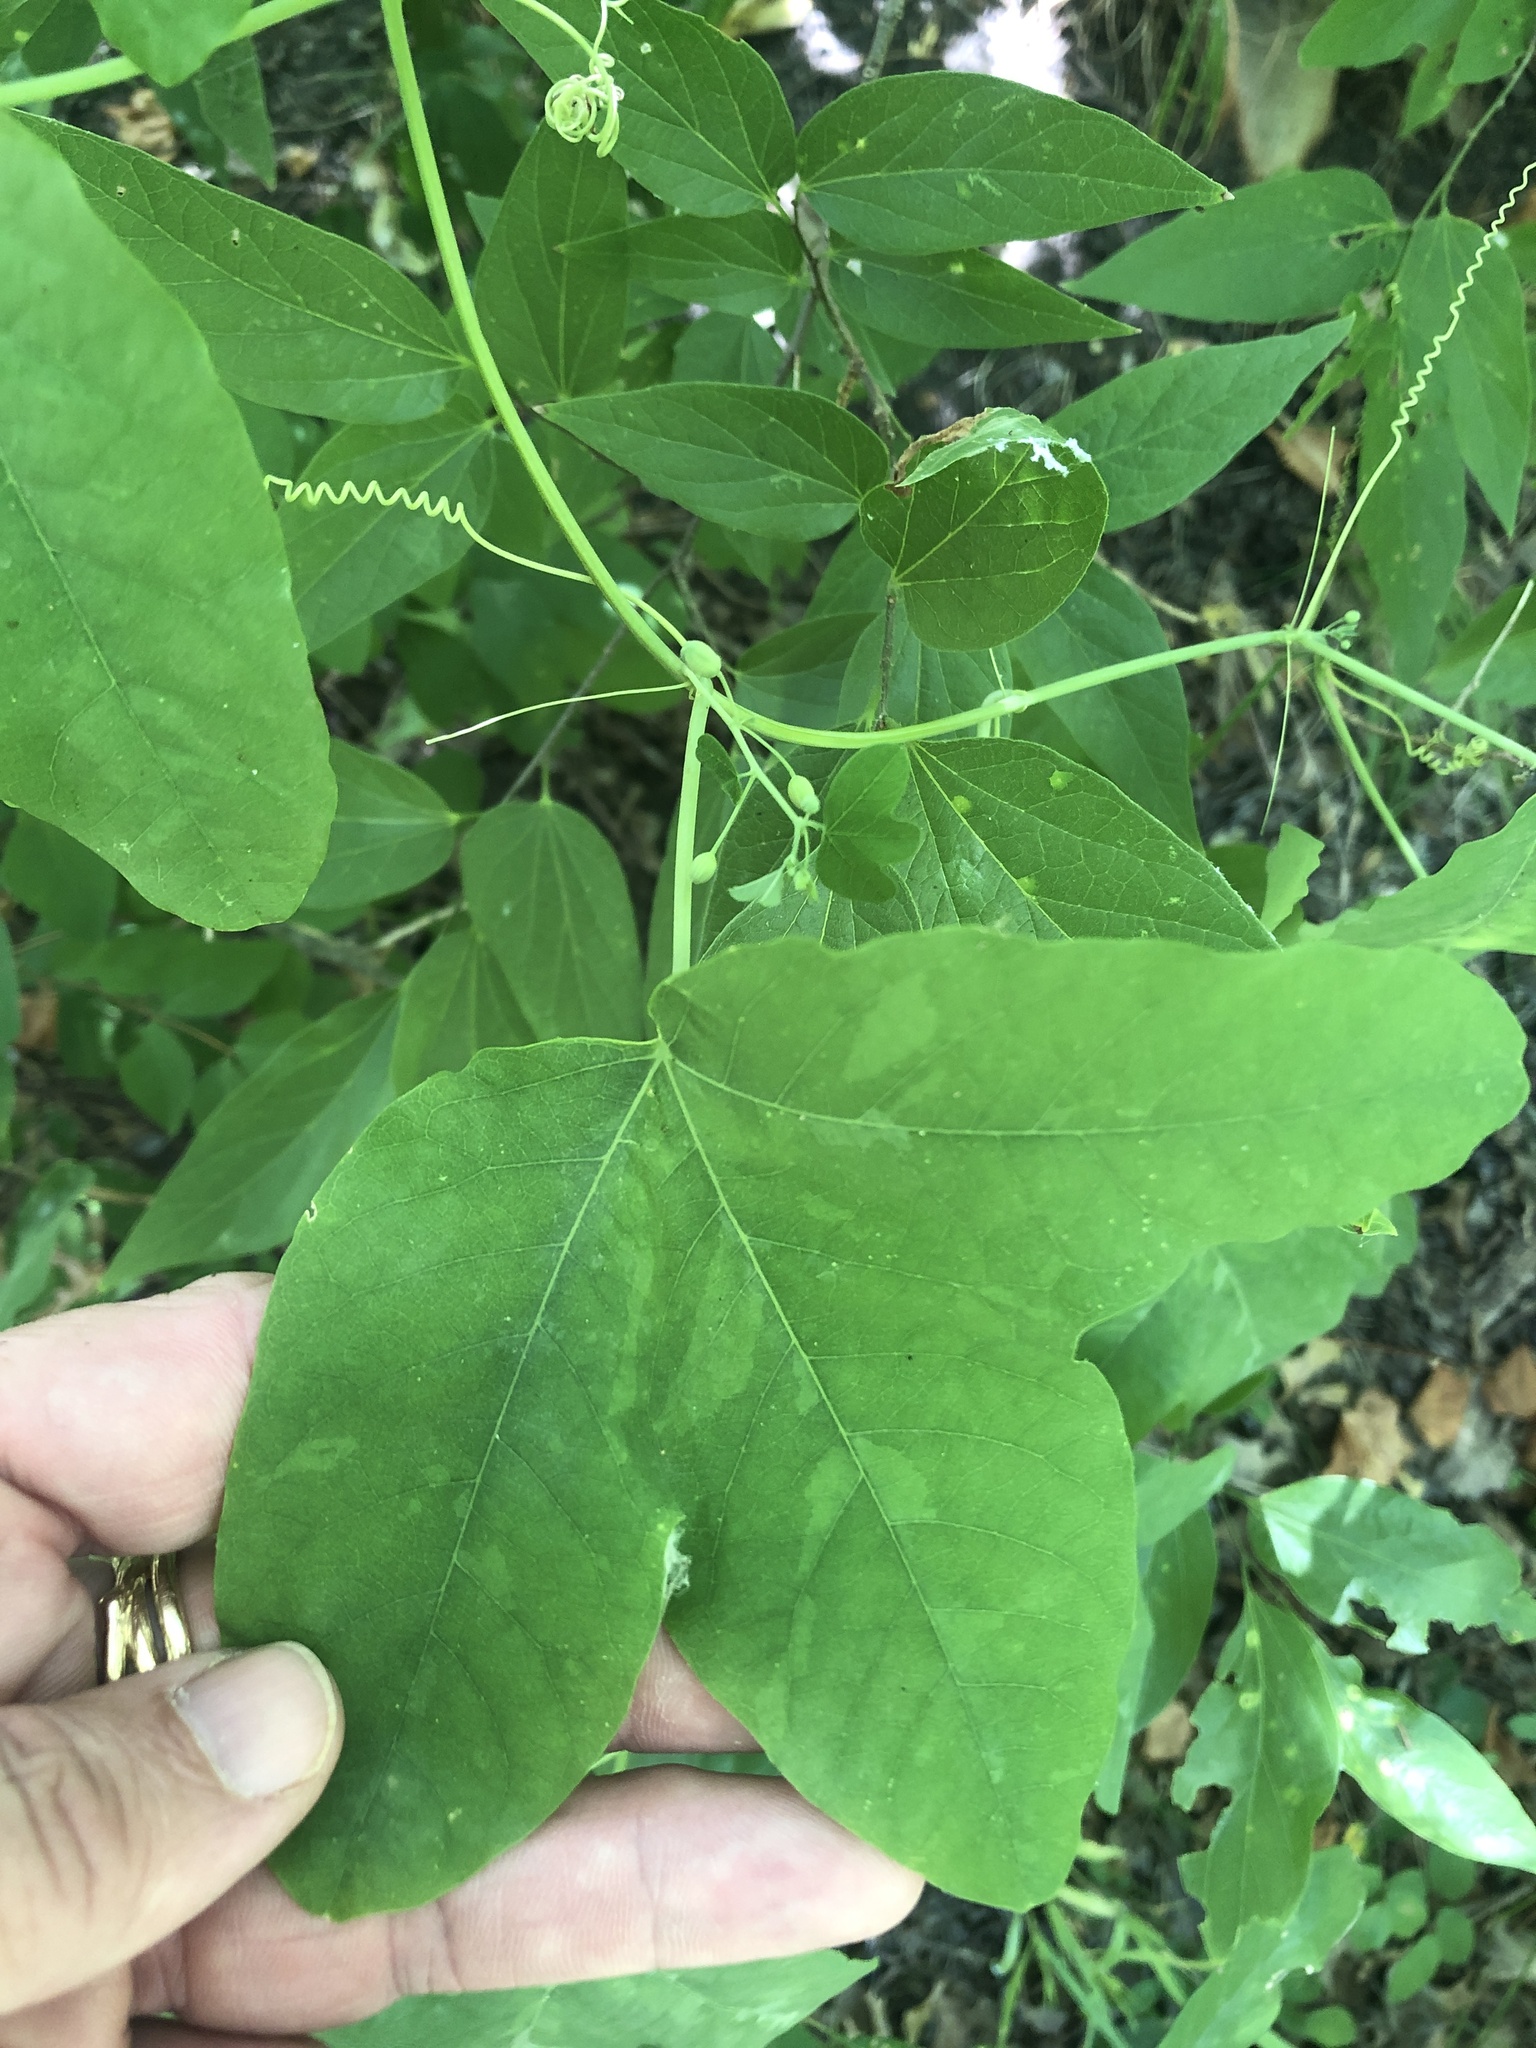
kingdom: Plantae
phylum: Tracheophyta
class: Magnoliopsida
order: Malpighiales
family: Passifloraceae
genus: Passiflora
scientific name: Passiflora lutea
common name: Yellow passionflower
